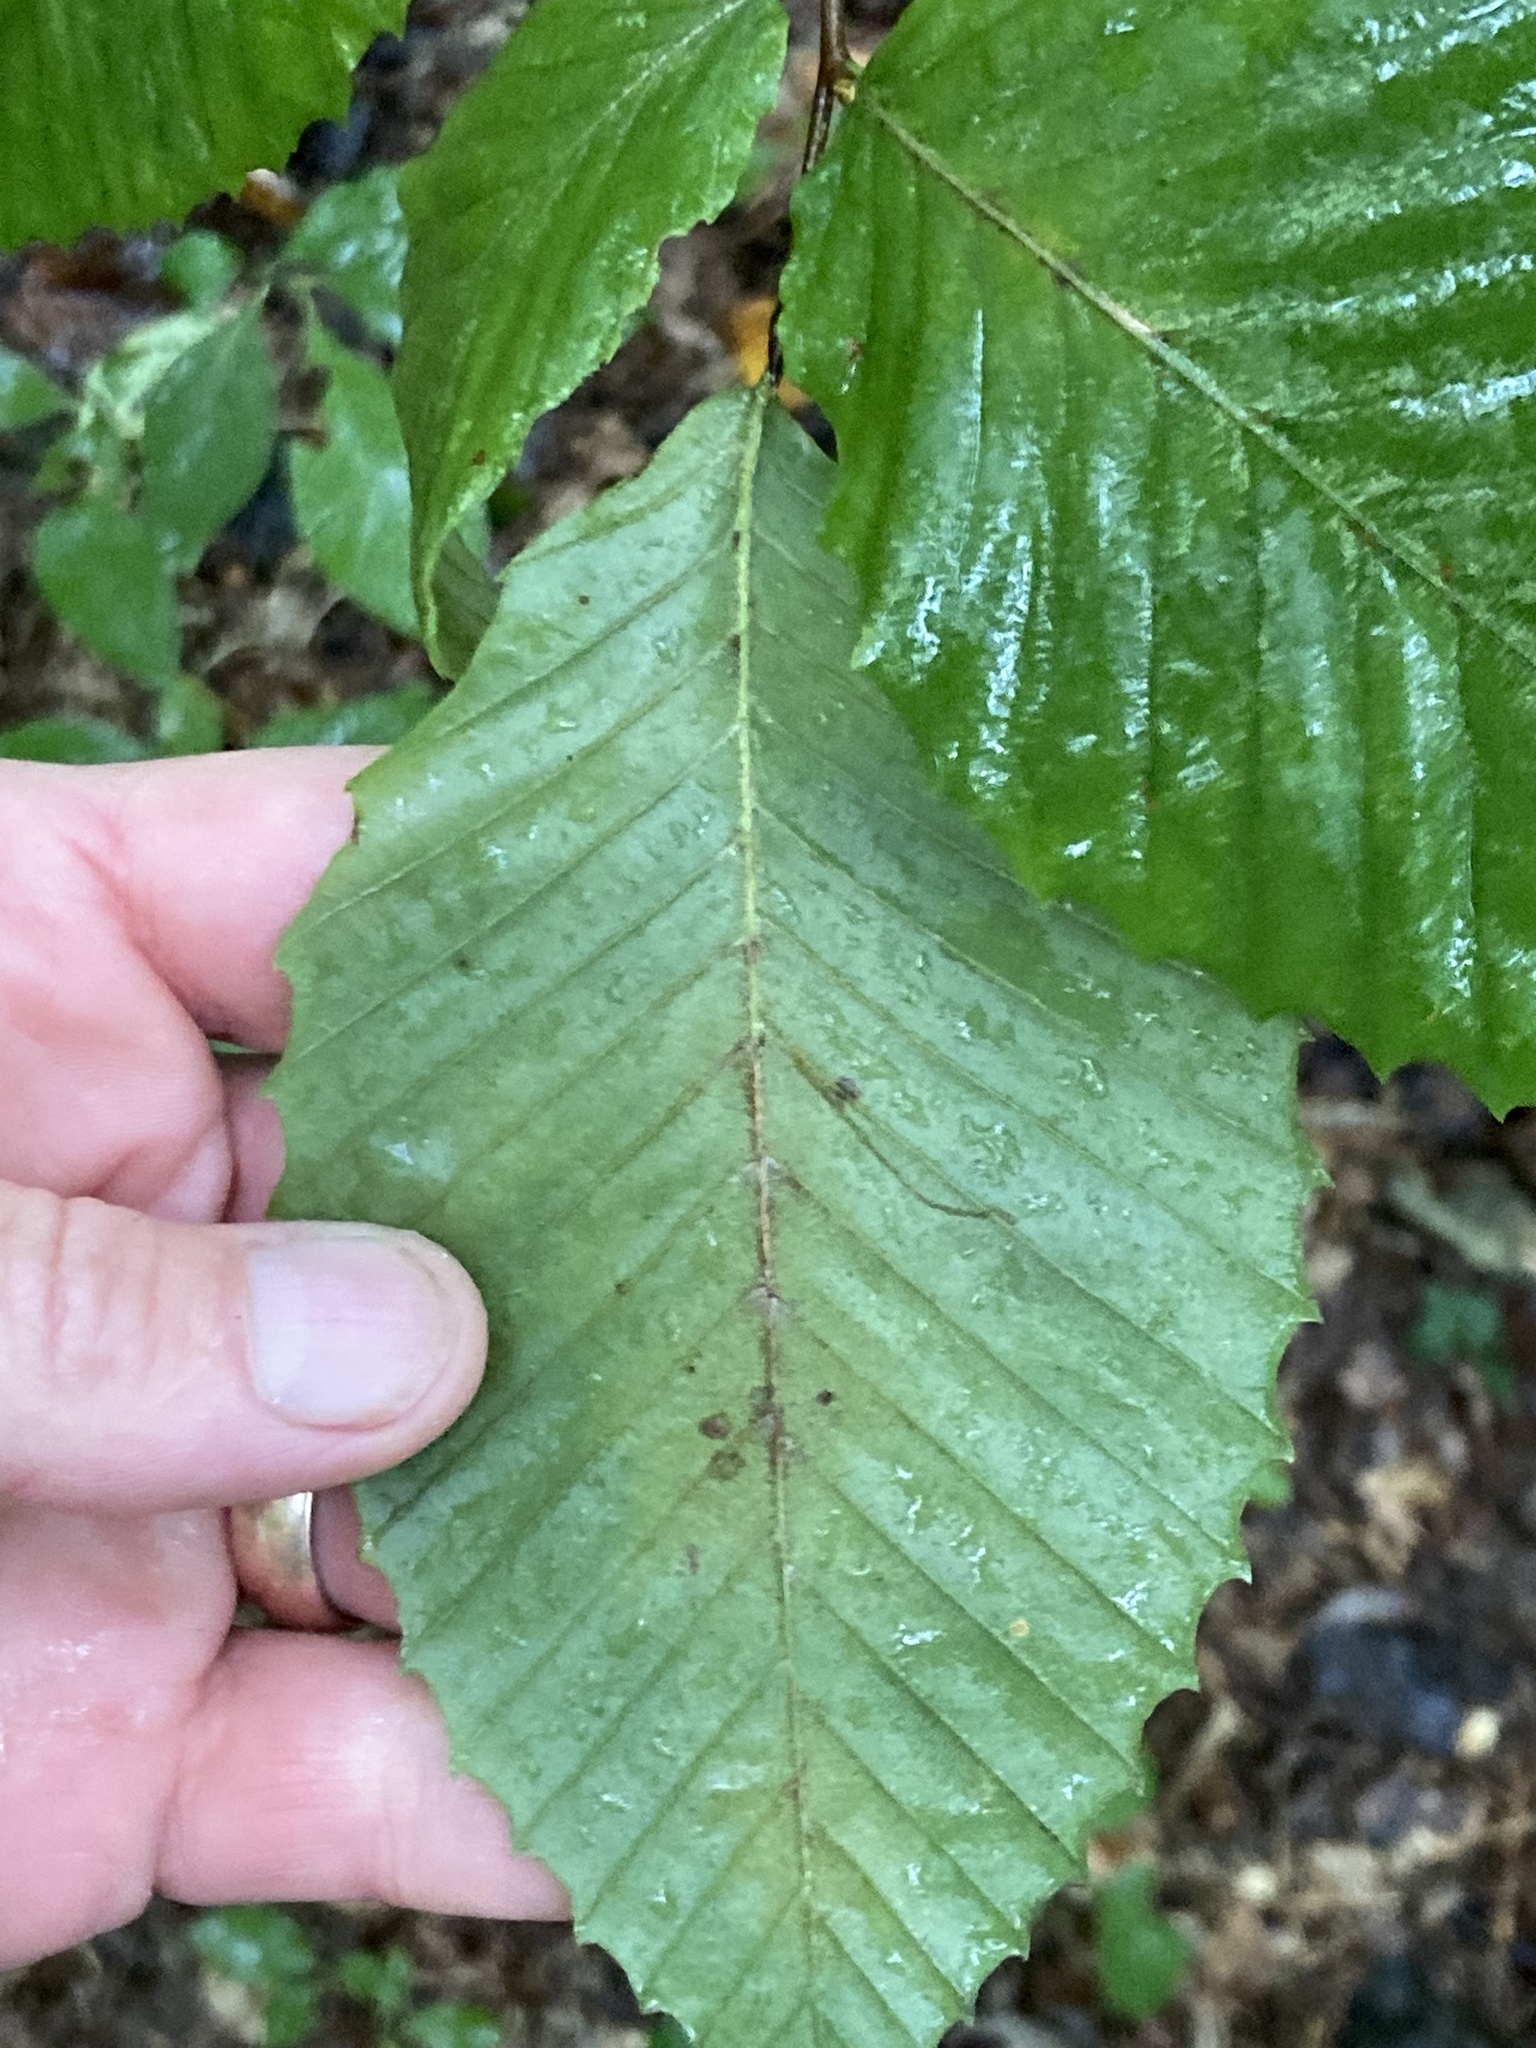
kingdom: Plantae
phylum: Tracheophyta
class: Magnoliopsida
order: Fagales
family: Fagaceae
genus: Fagus
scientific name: Fagus grandifolia
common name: American beech
